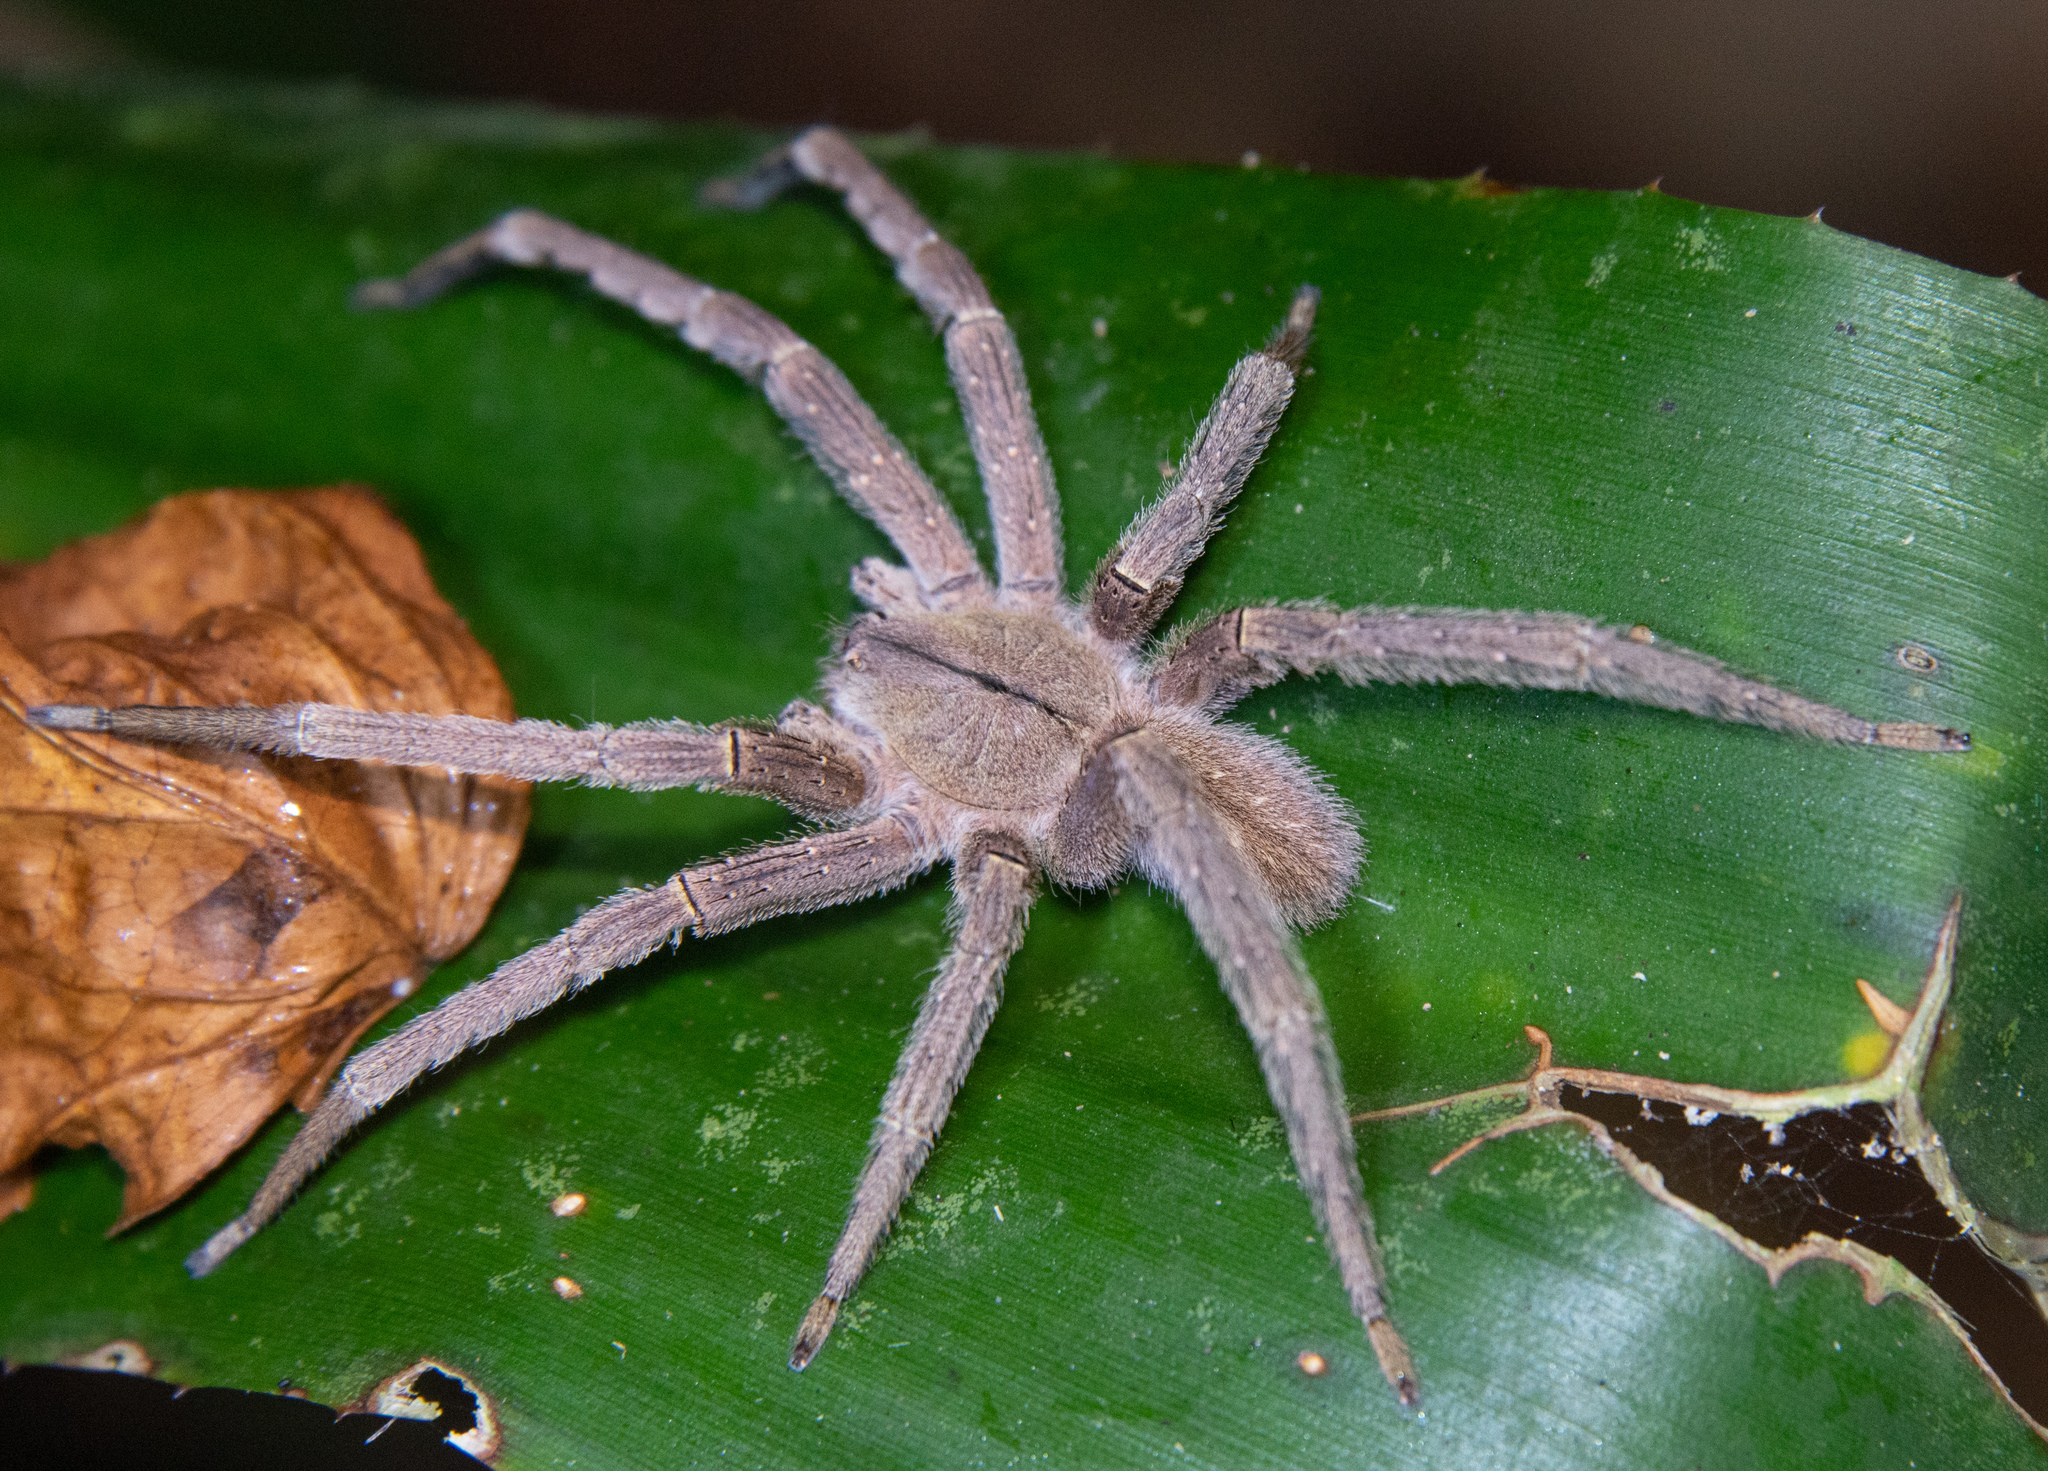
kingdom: Animalia
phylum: Arthropoda
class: Arachnida
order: Araneae
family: Ctenidae
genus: Phoneutria
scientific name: Phoneutria depilata
